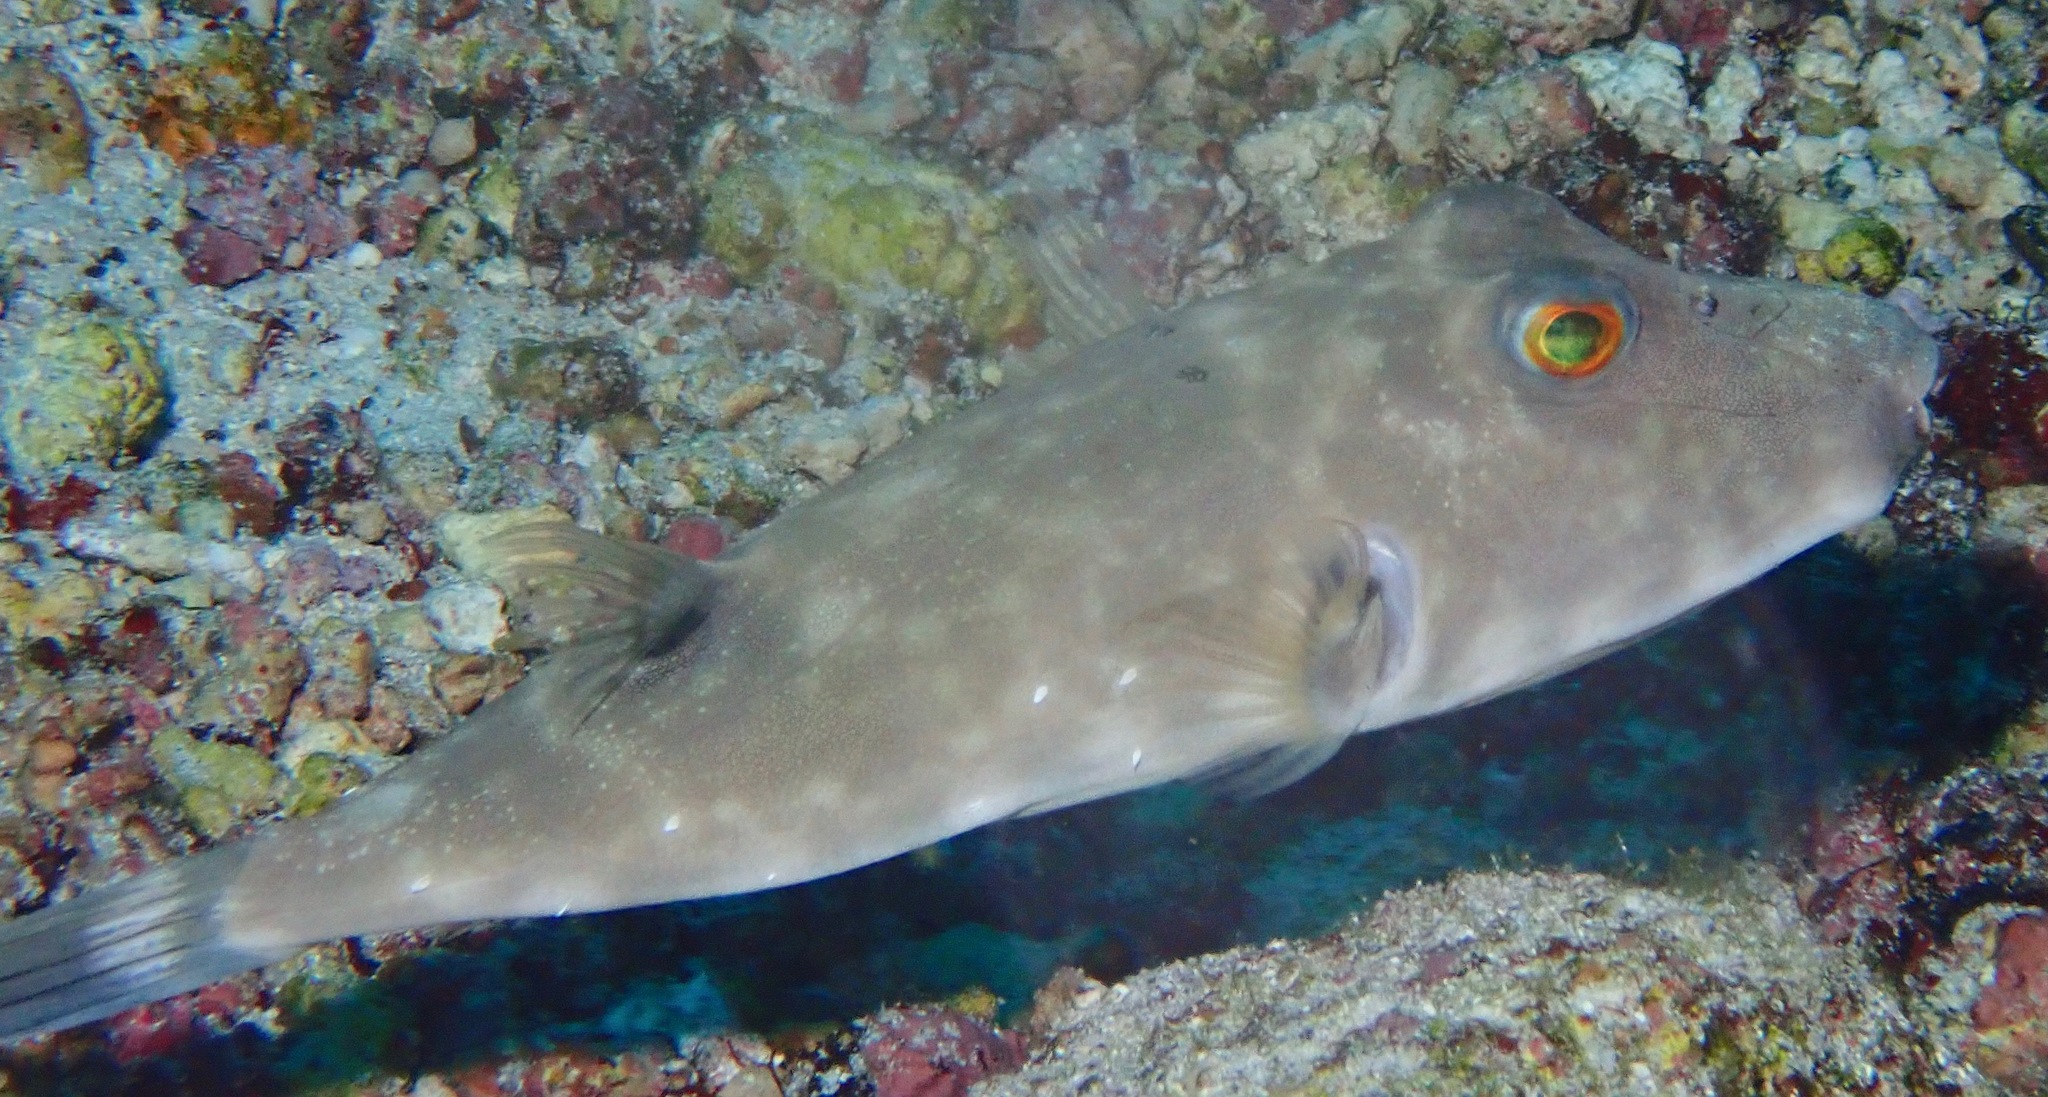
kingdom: Animalia
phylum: Chordata
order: Tetraodontiformes
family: Tetraodontidae
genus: Sphoeroides
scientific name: Sphoeroides angusticeps
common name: Narrow-headed puffer
